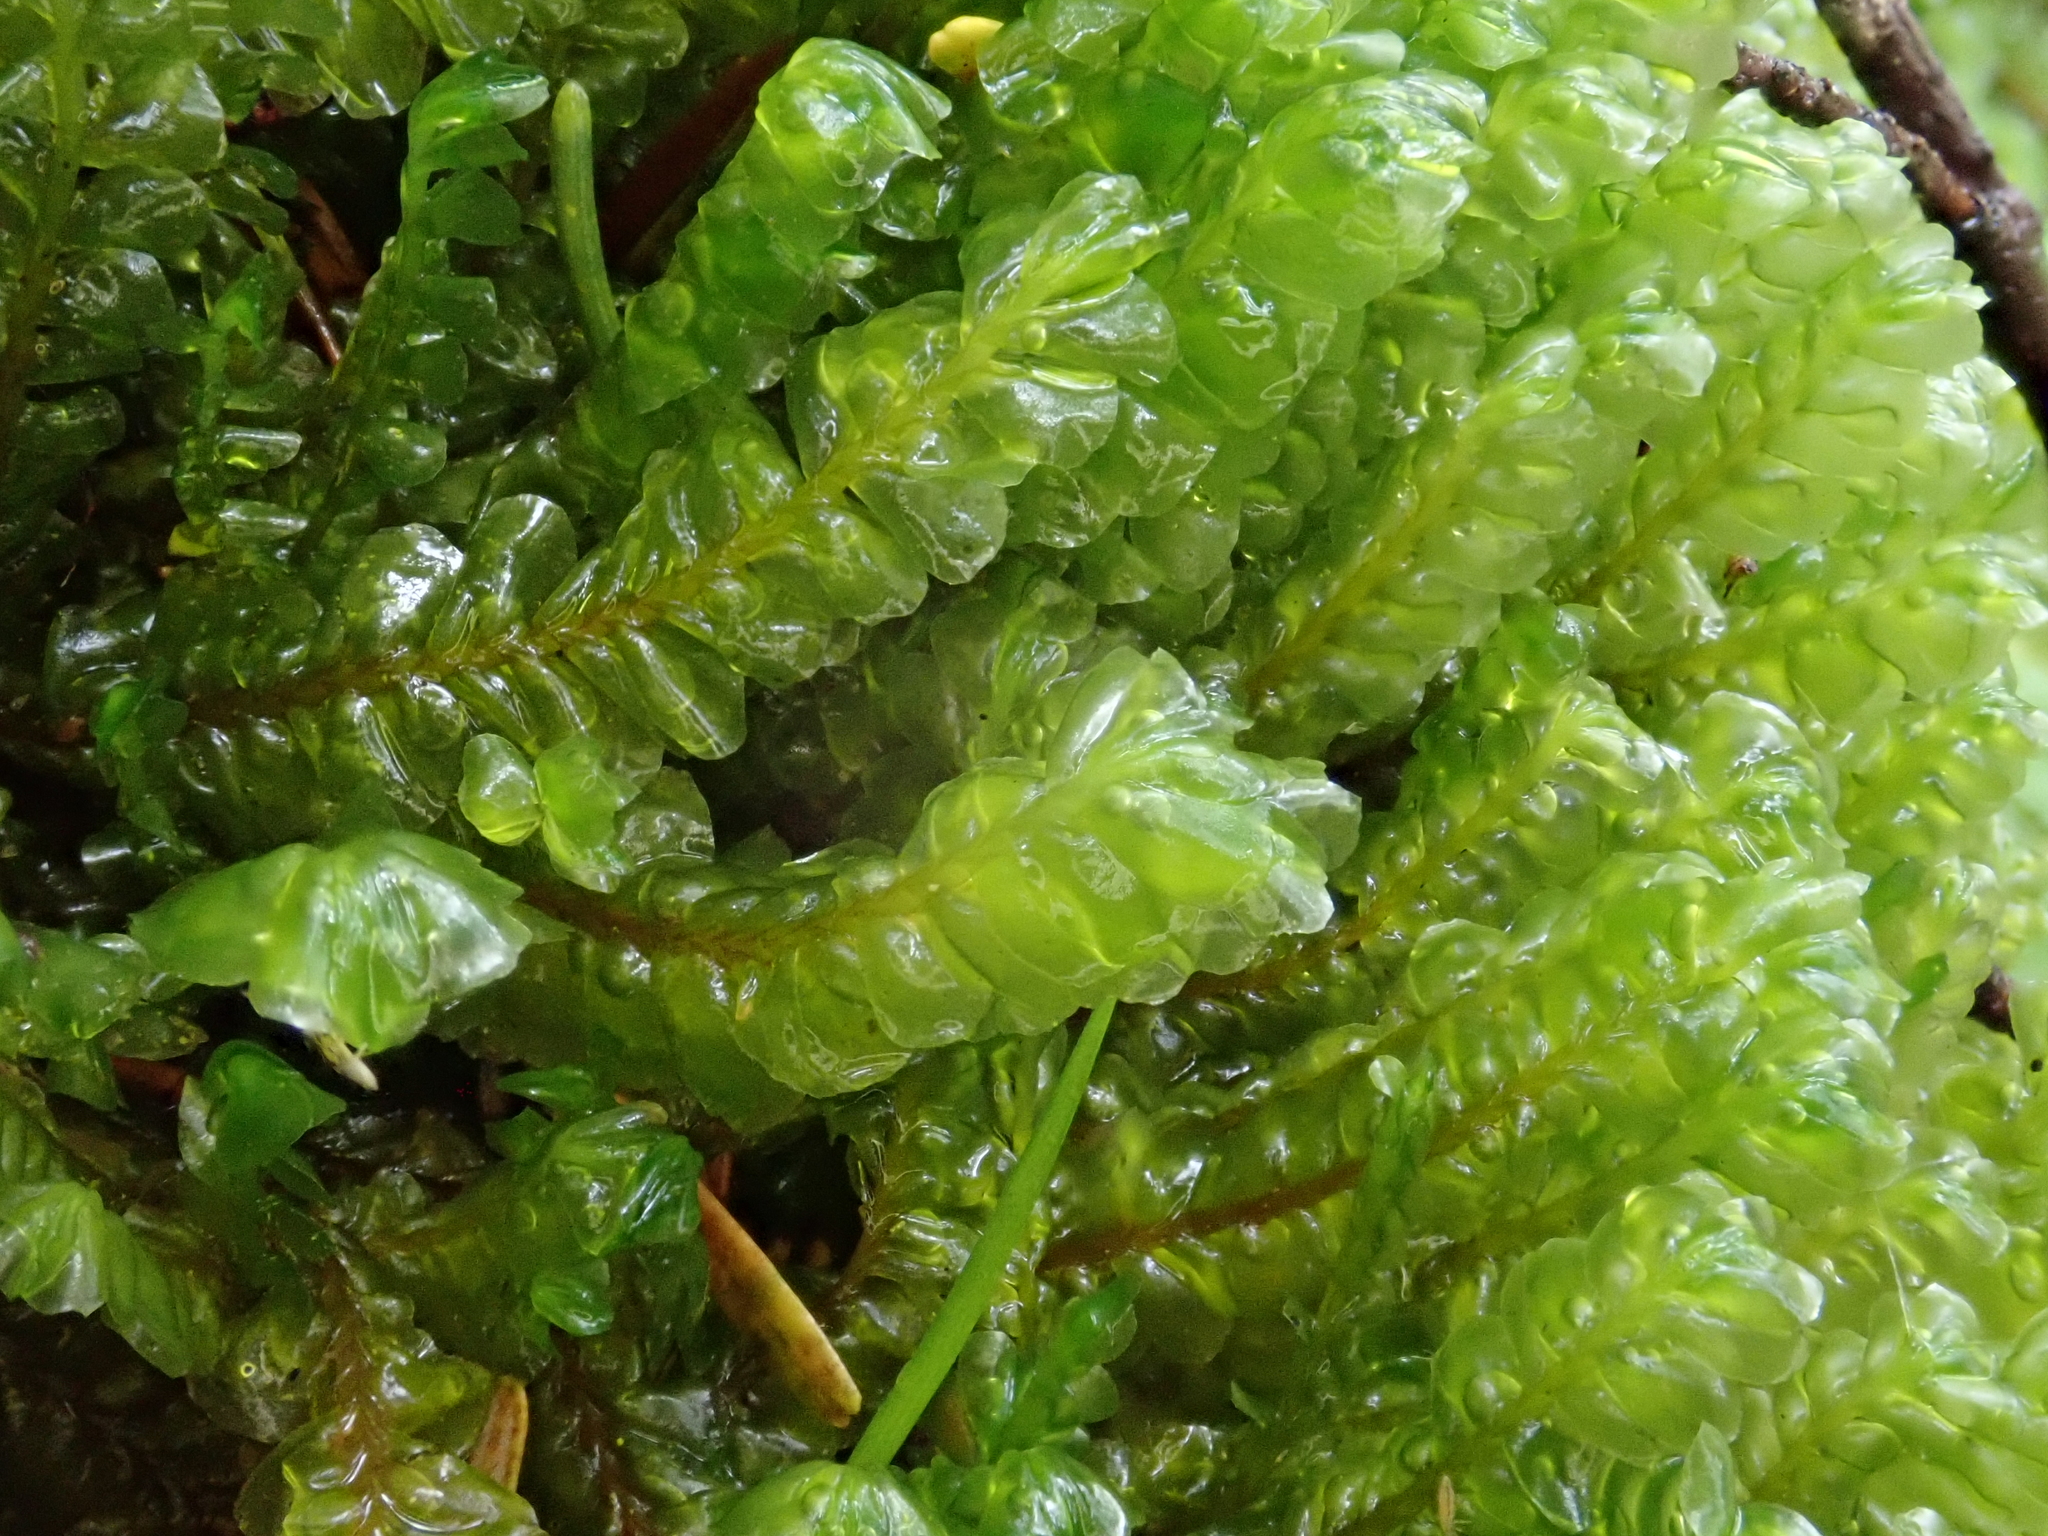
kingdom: Plantae
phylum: Marchantiophyta
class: Jungermanniopsida
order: Jungermanniales
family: Plagiochilaceae
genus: Plagiochila
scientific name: Plagiochila asplenioides
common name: Greater featherwort
